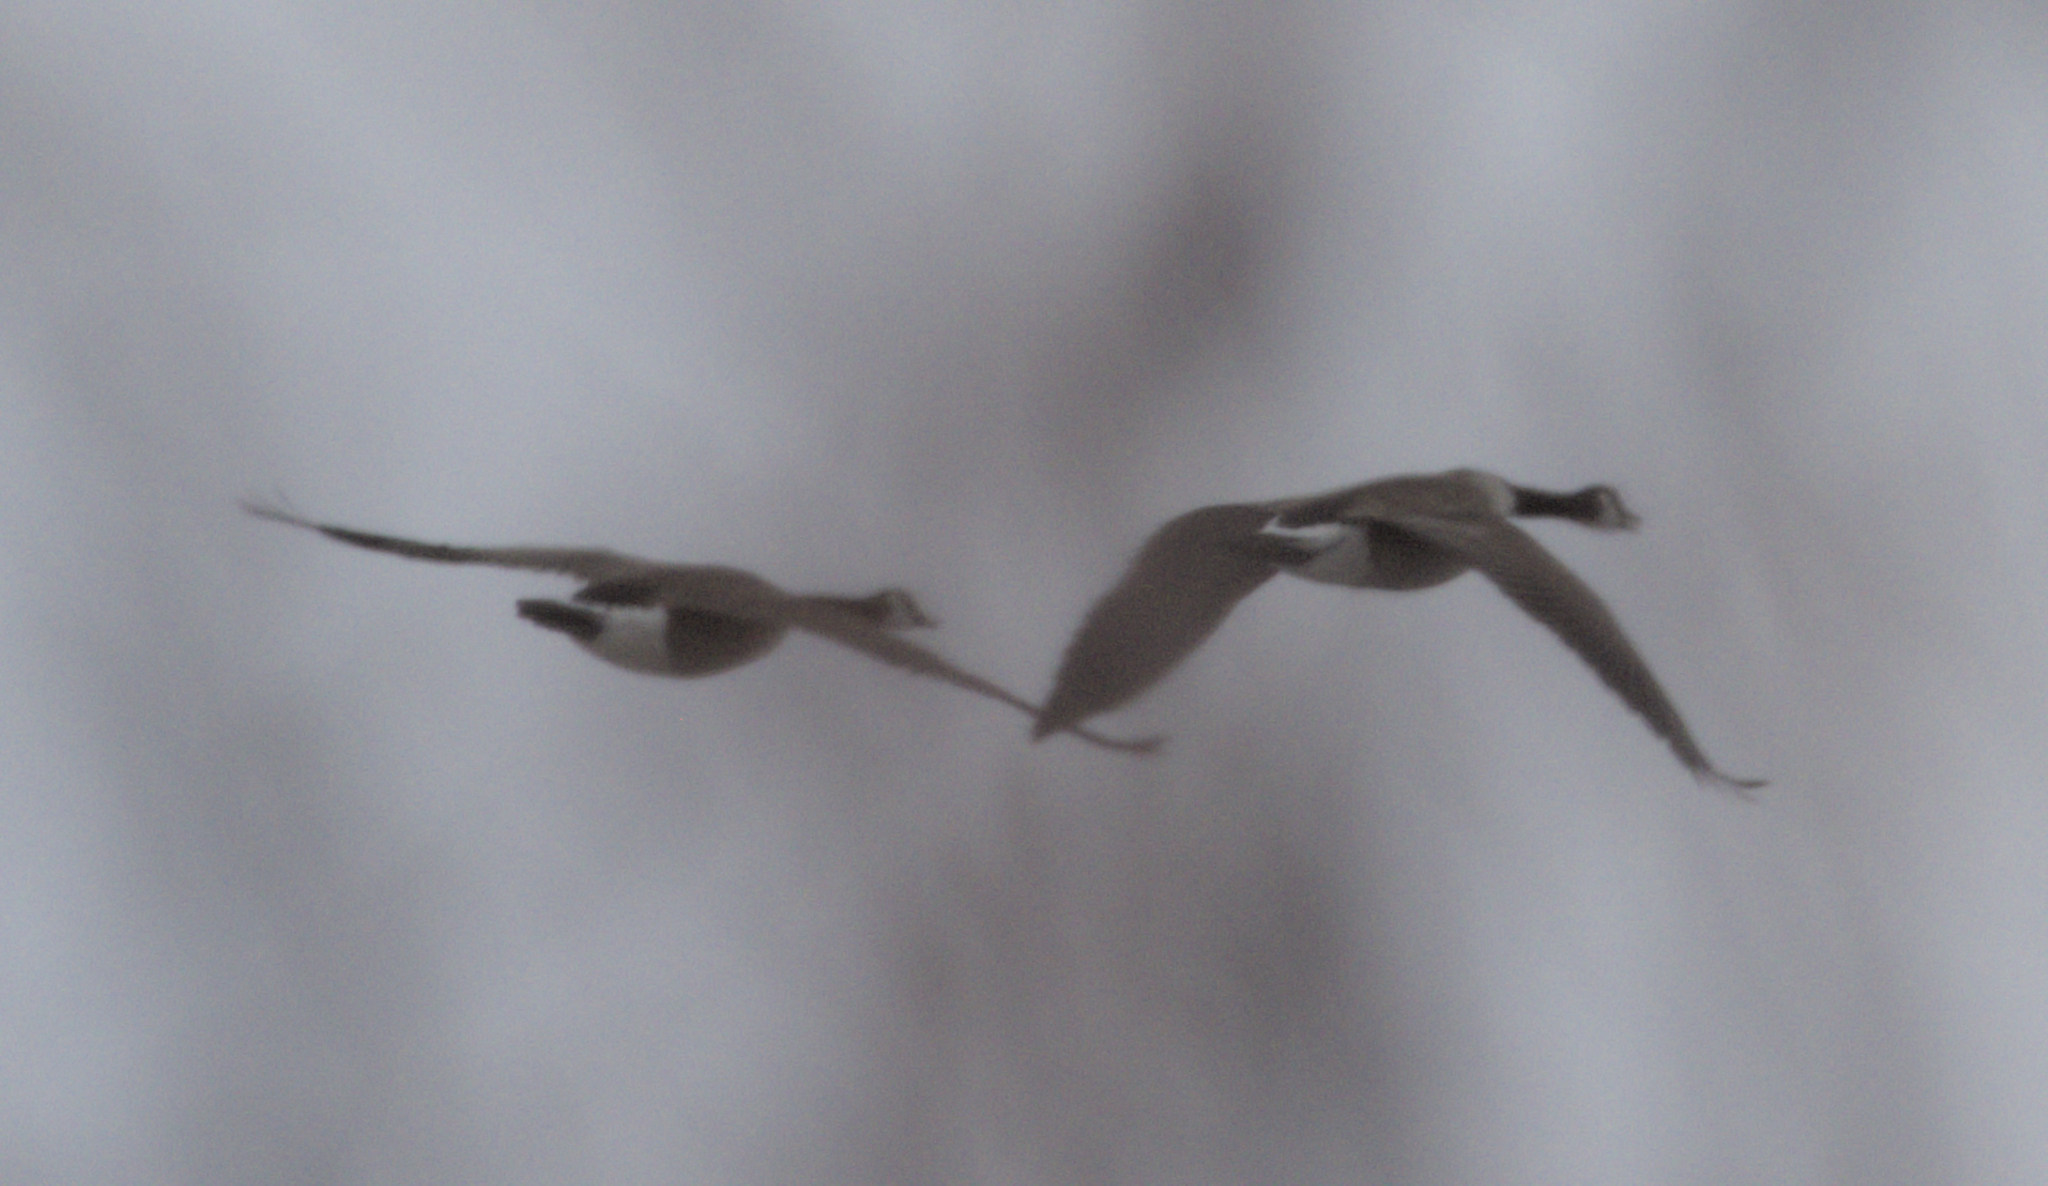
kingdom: Animalia
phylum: Chordata
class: Aves
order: Anseriformes
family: Anatidae
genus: Branta
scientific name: Branta canadensis
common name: Canada goose
